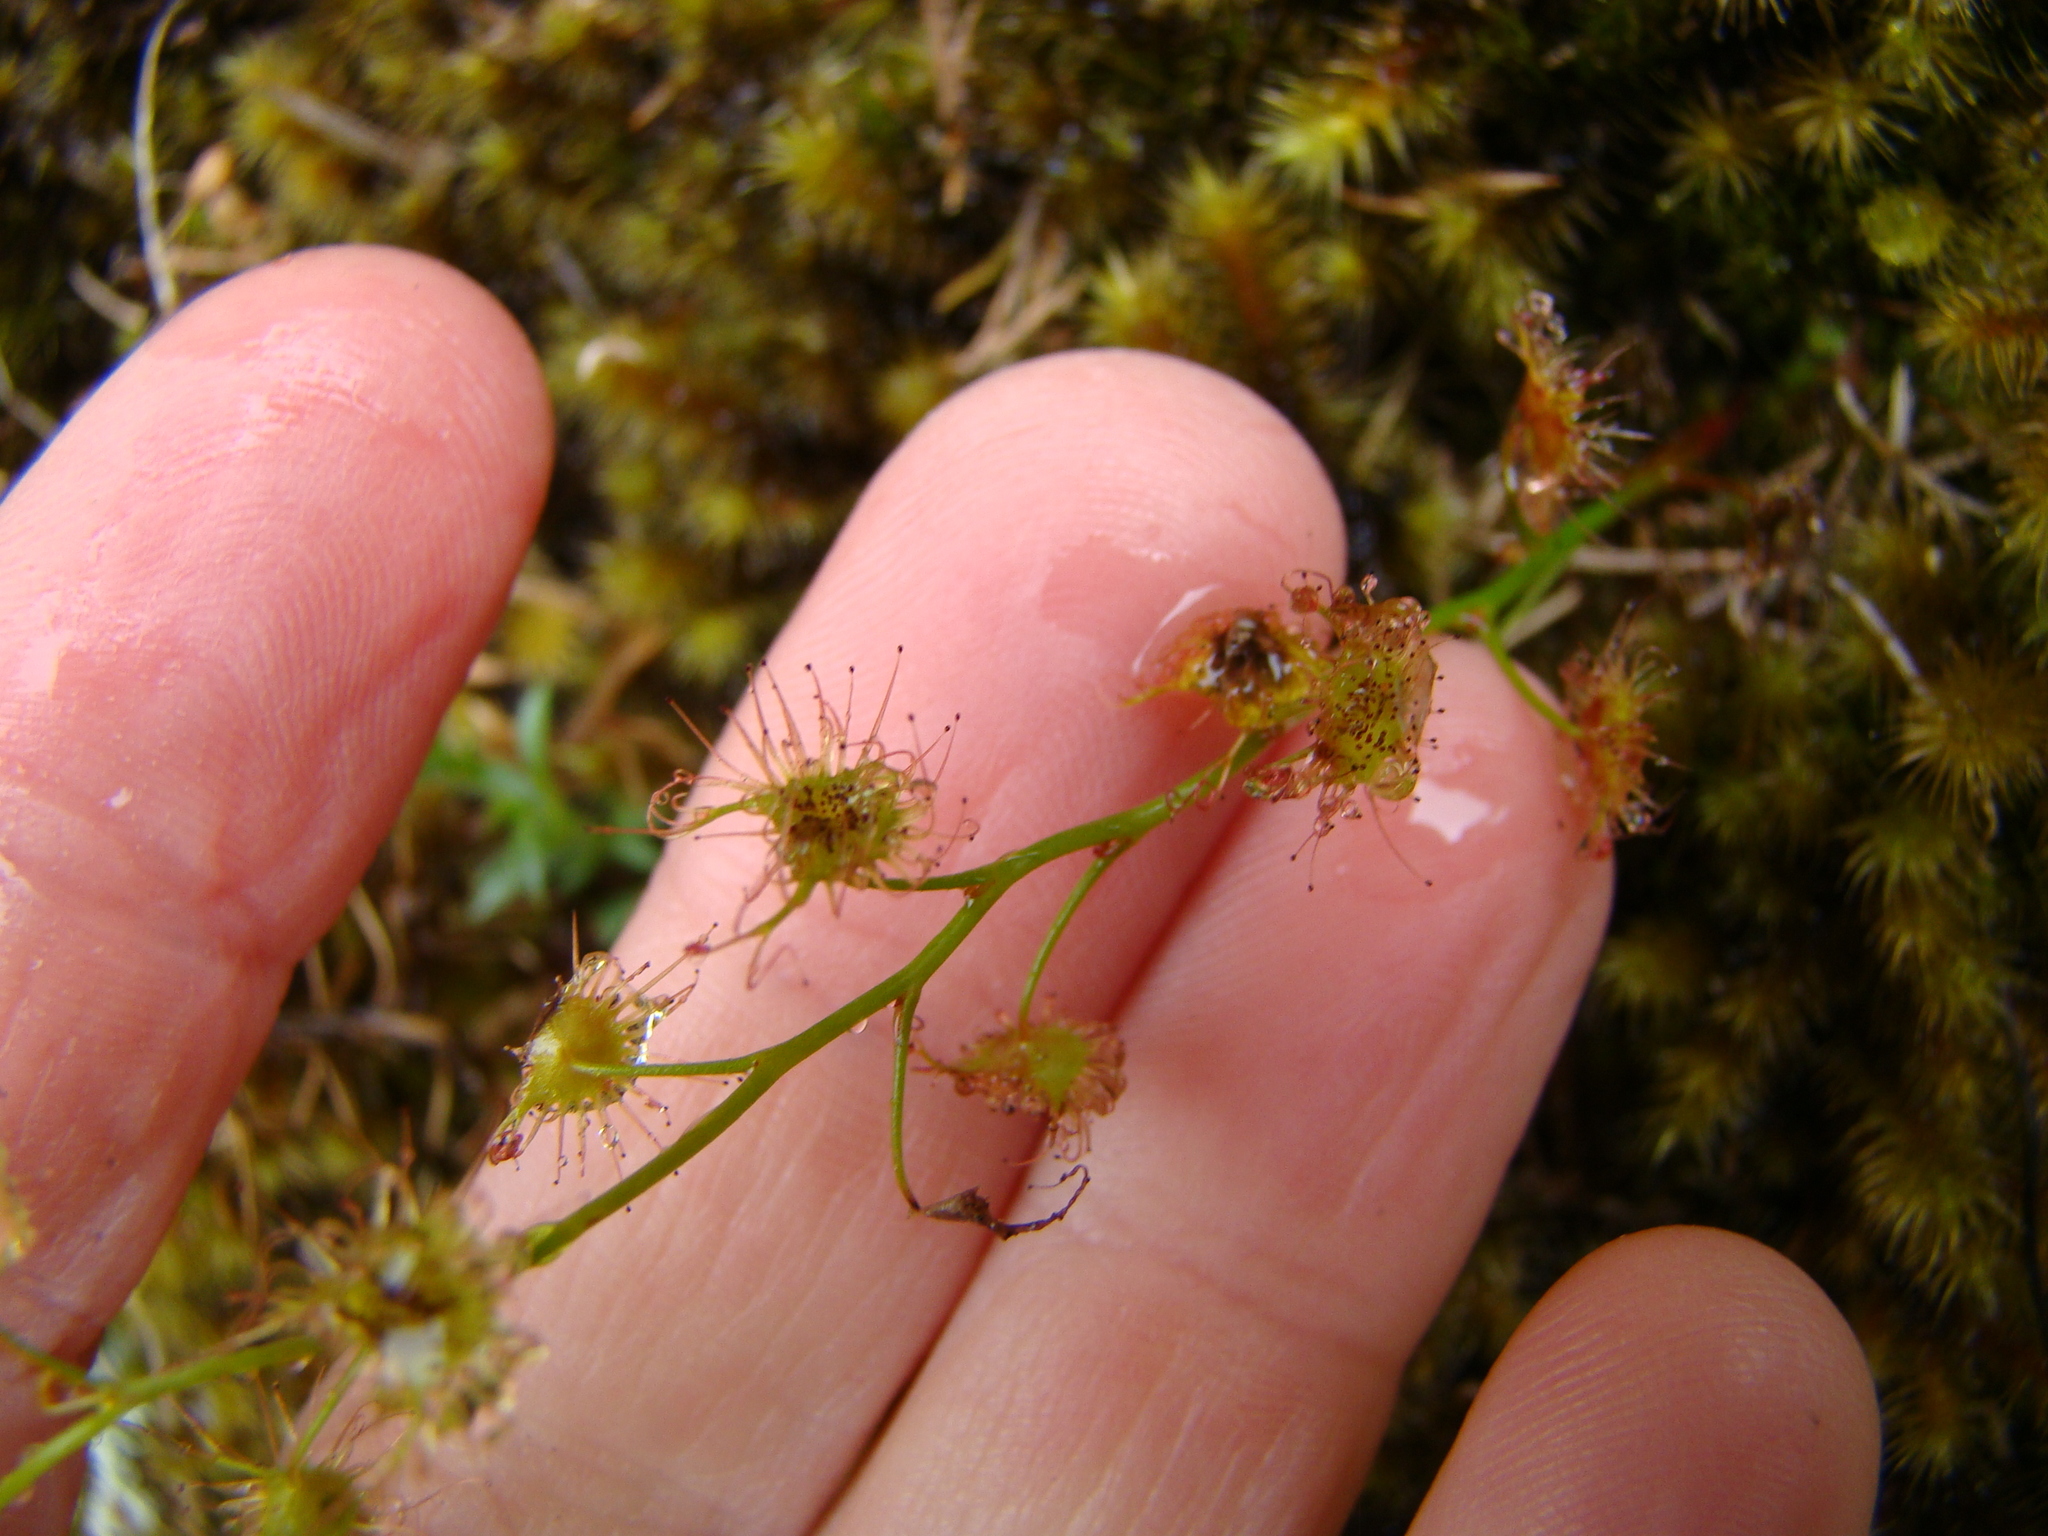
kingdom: Plantae
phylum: Tracheophyta
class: Magnoliopsida
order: Caryophyllales
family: Droseraceae
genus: Drosera
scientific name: Drosera peltata
